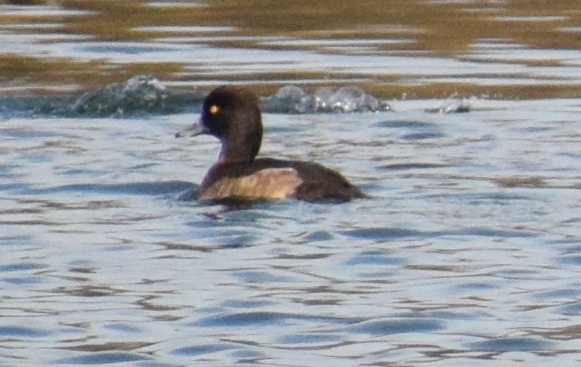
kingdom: Animalia
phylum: Chordata
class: Aves
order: Anseriformes
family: Anatidae
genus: Aythya
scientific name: Aythya fuligula
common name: Tufted duck
